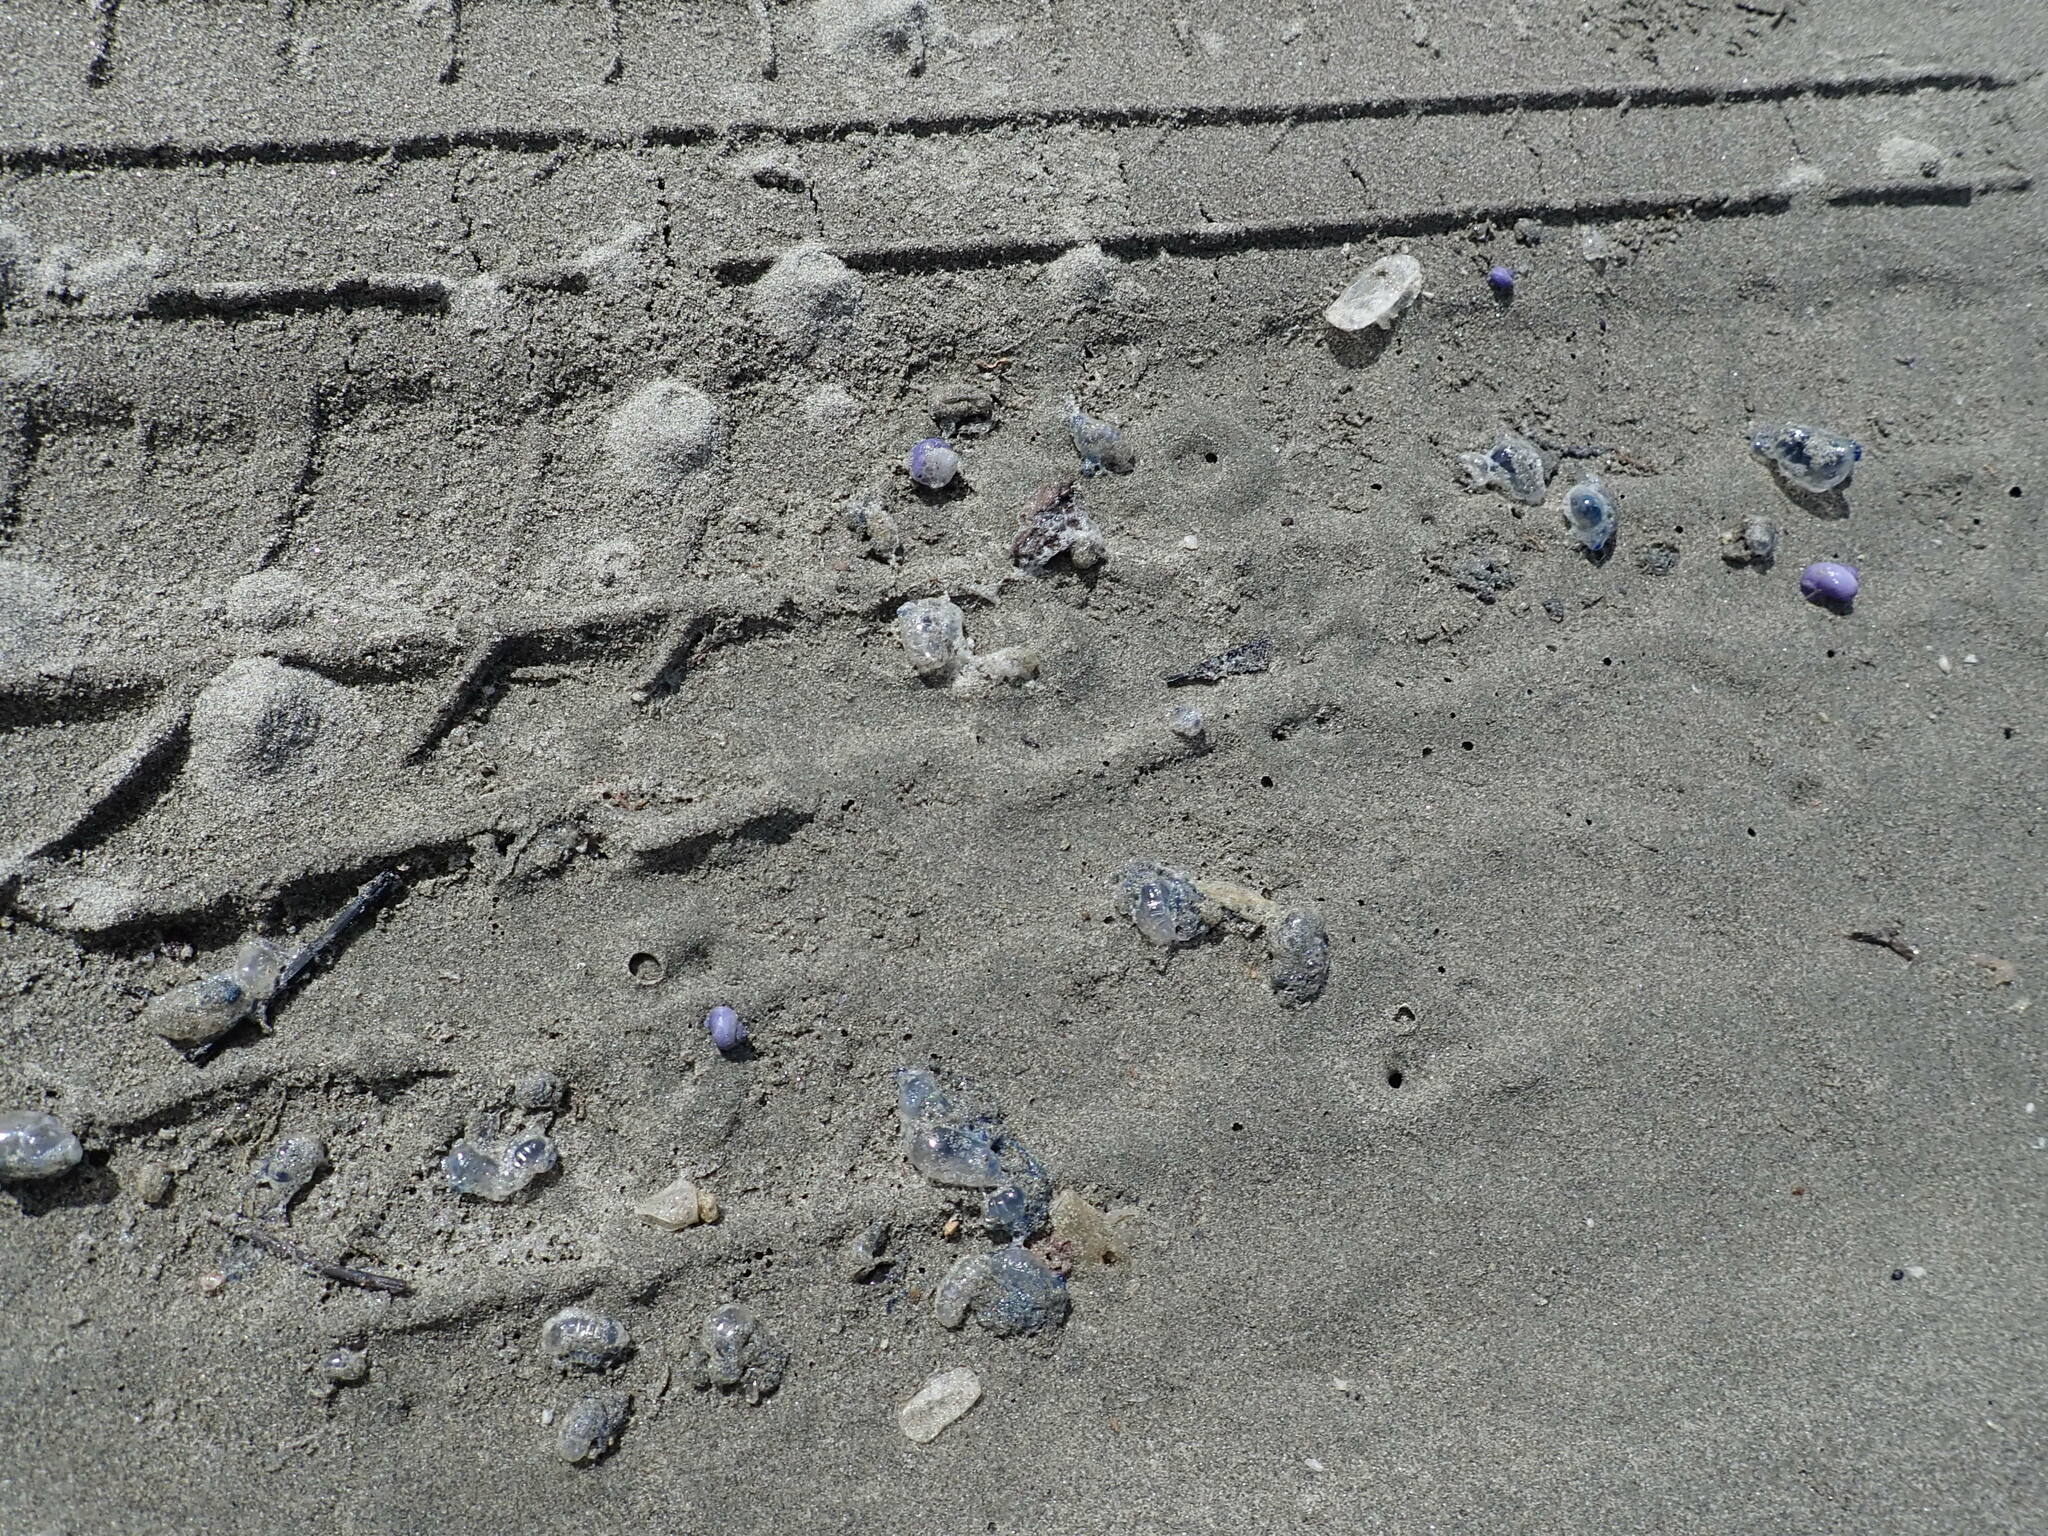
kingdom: Animalia
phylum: Mollusca
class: Gastropoda
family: Epitoniidae
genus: Janthina
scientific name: Janthina exigua
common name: Dwarf janthina
